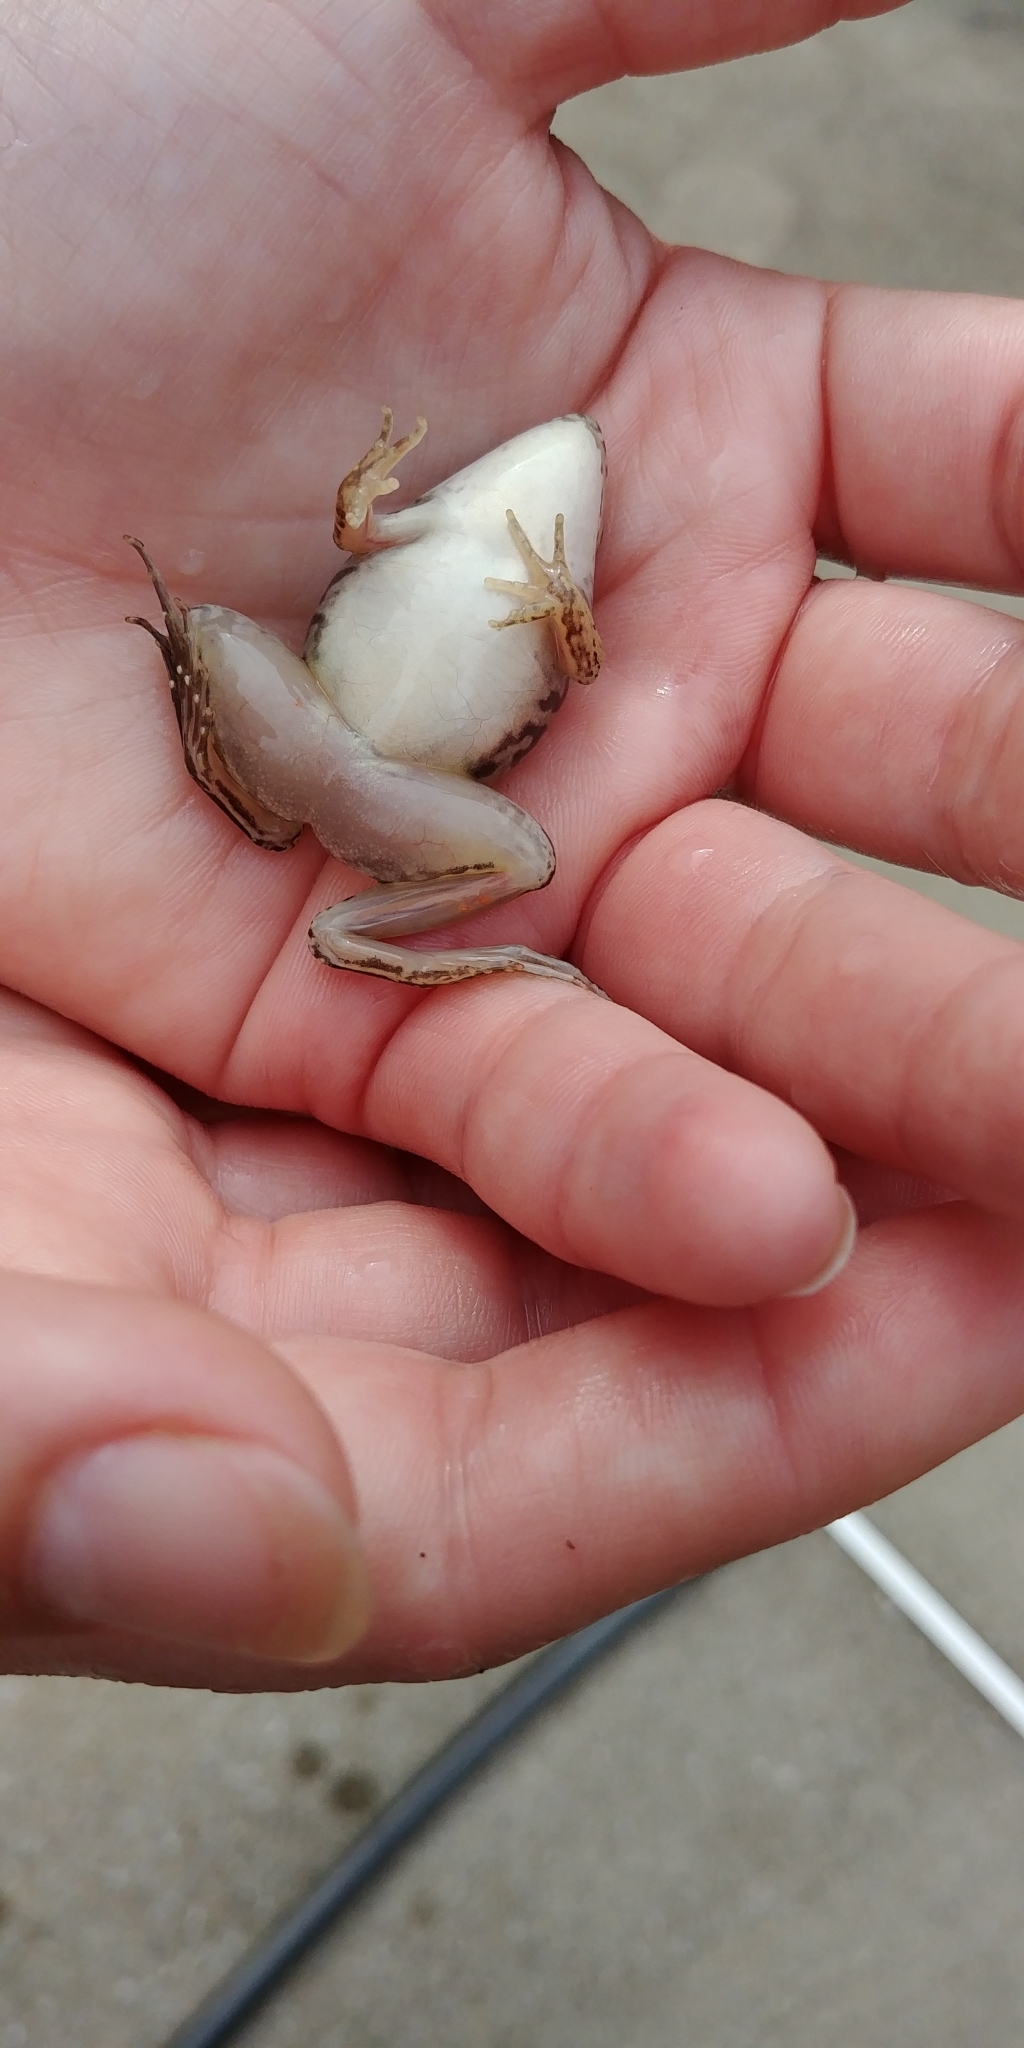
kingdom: Animalia
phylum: Chordata
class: Amphibia
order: Anura
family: Ranidae
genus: Lithobates
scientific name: Lithobates sphenocephalus
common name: Southern leopard frog
